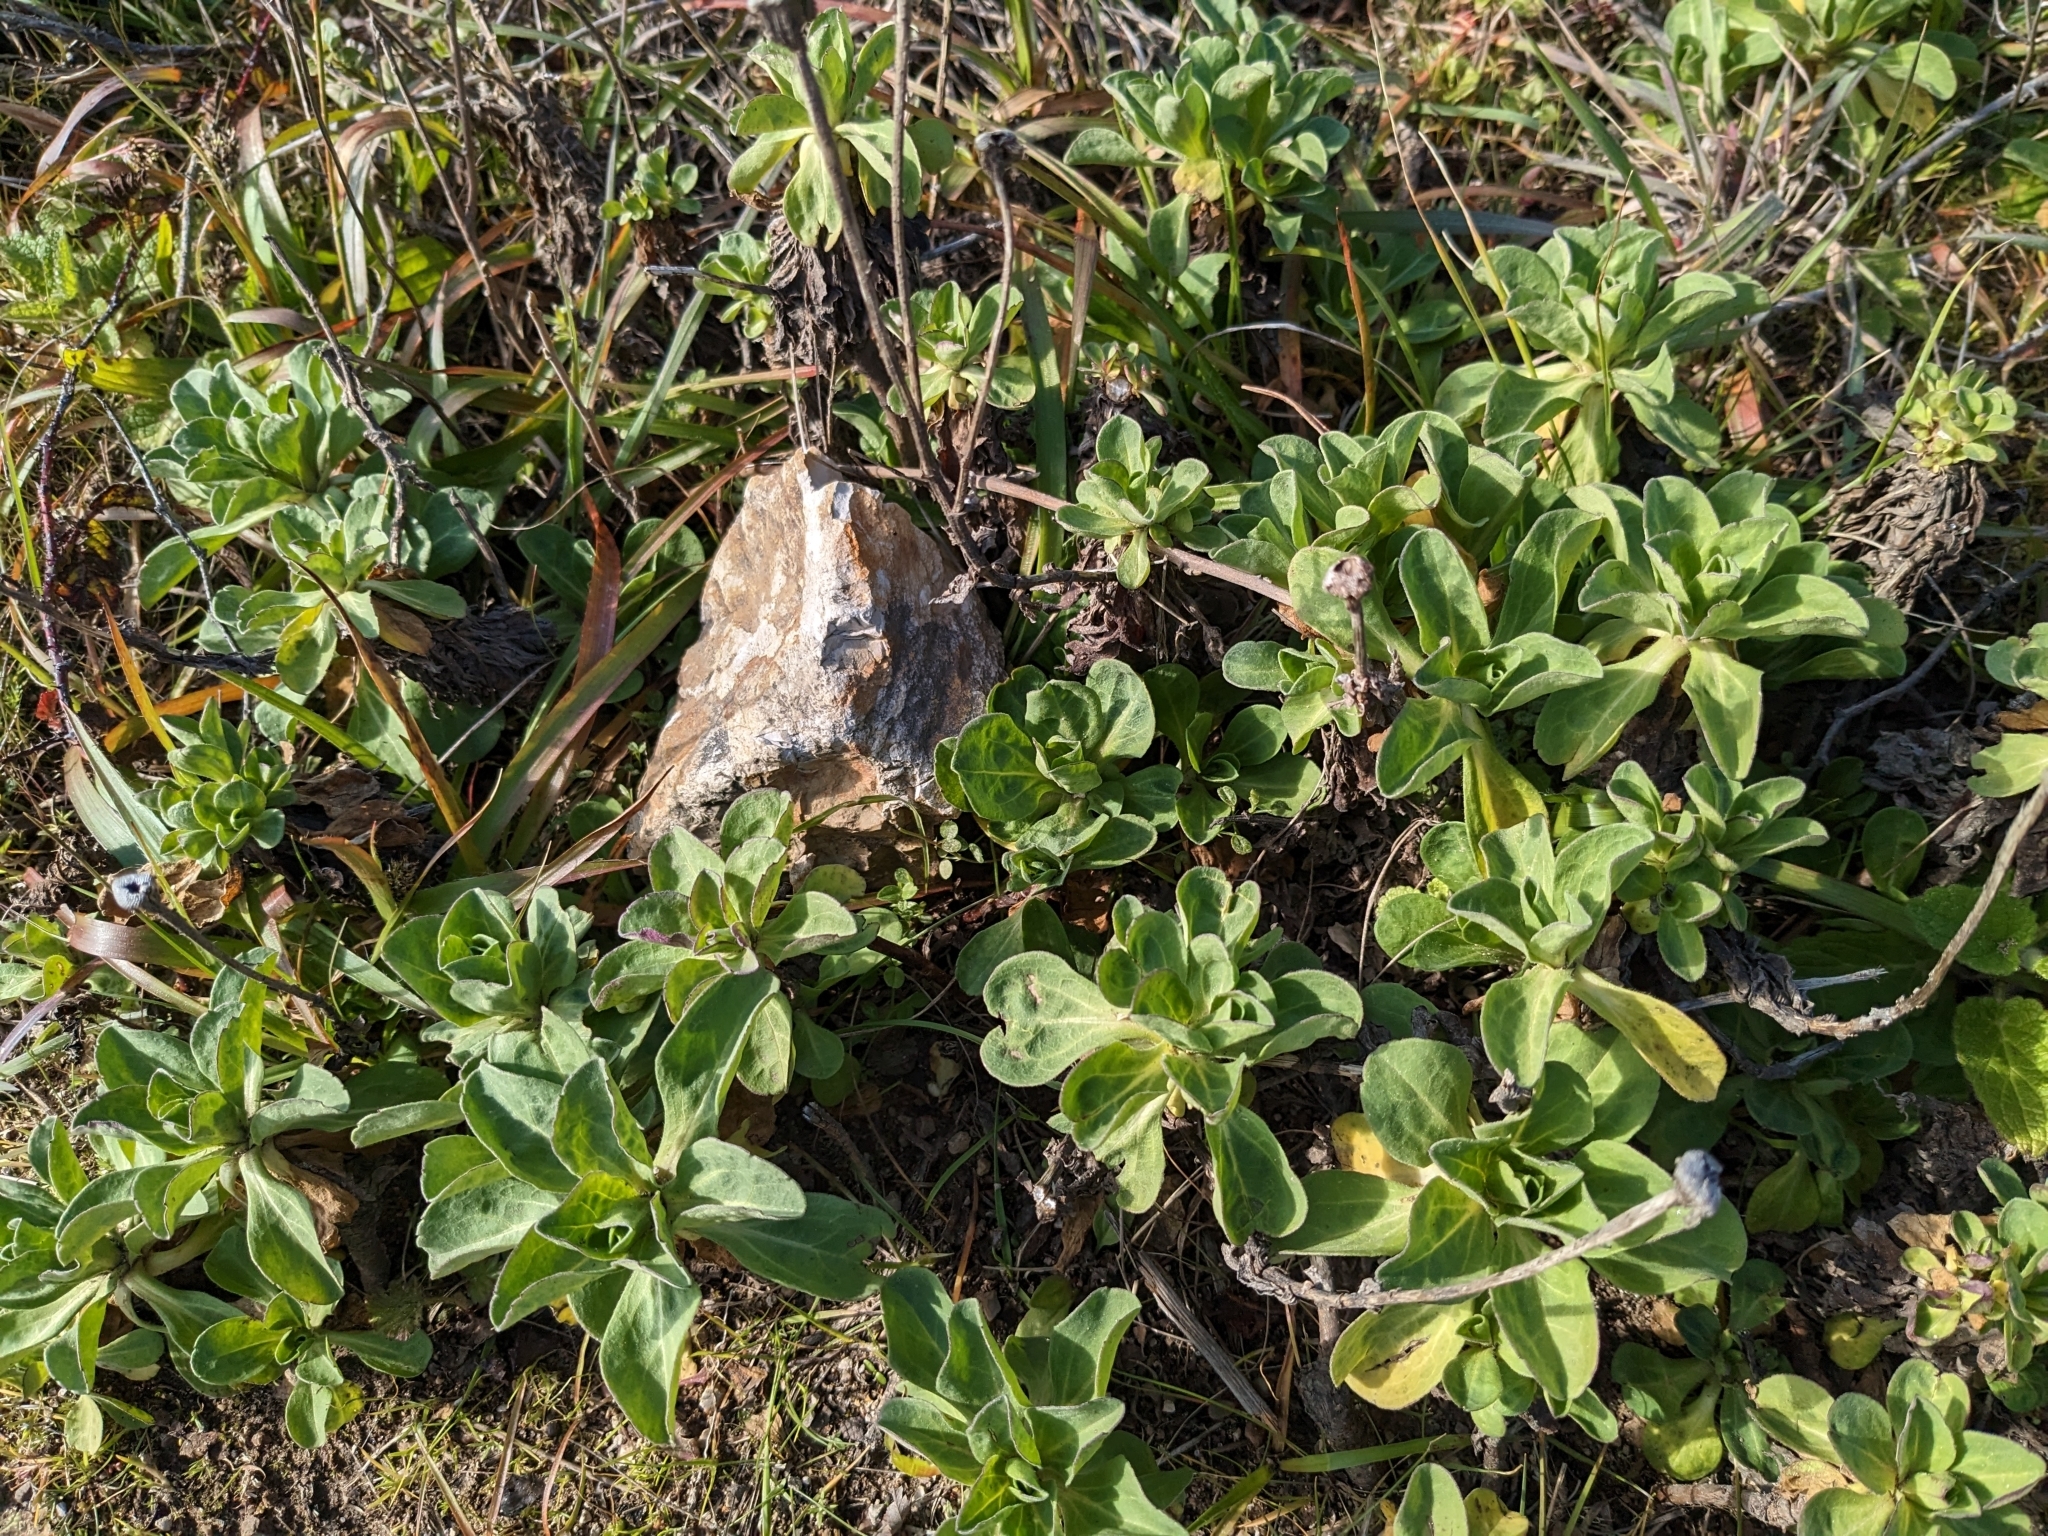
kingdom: Plantae
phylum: Tracheophyta
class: Magnoliopsida
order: Asterales
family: Asteraceae
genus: Erigeron
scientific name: Erigeron glaucus
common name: Seaside daisy
